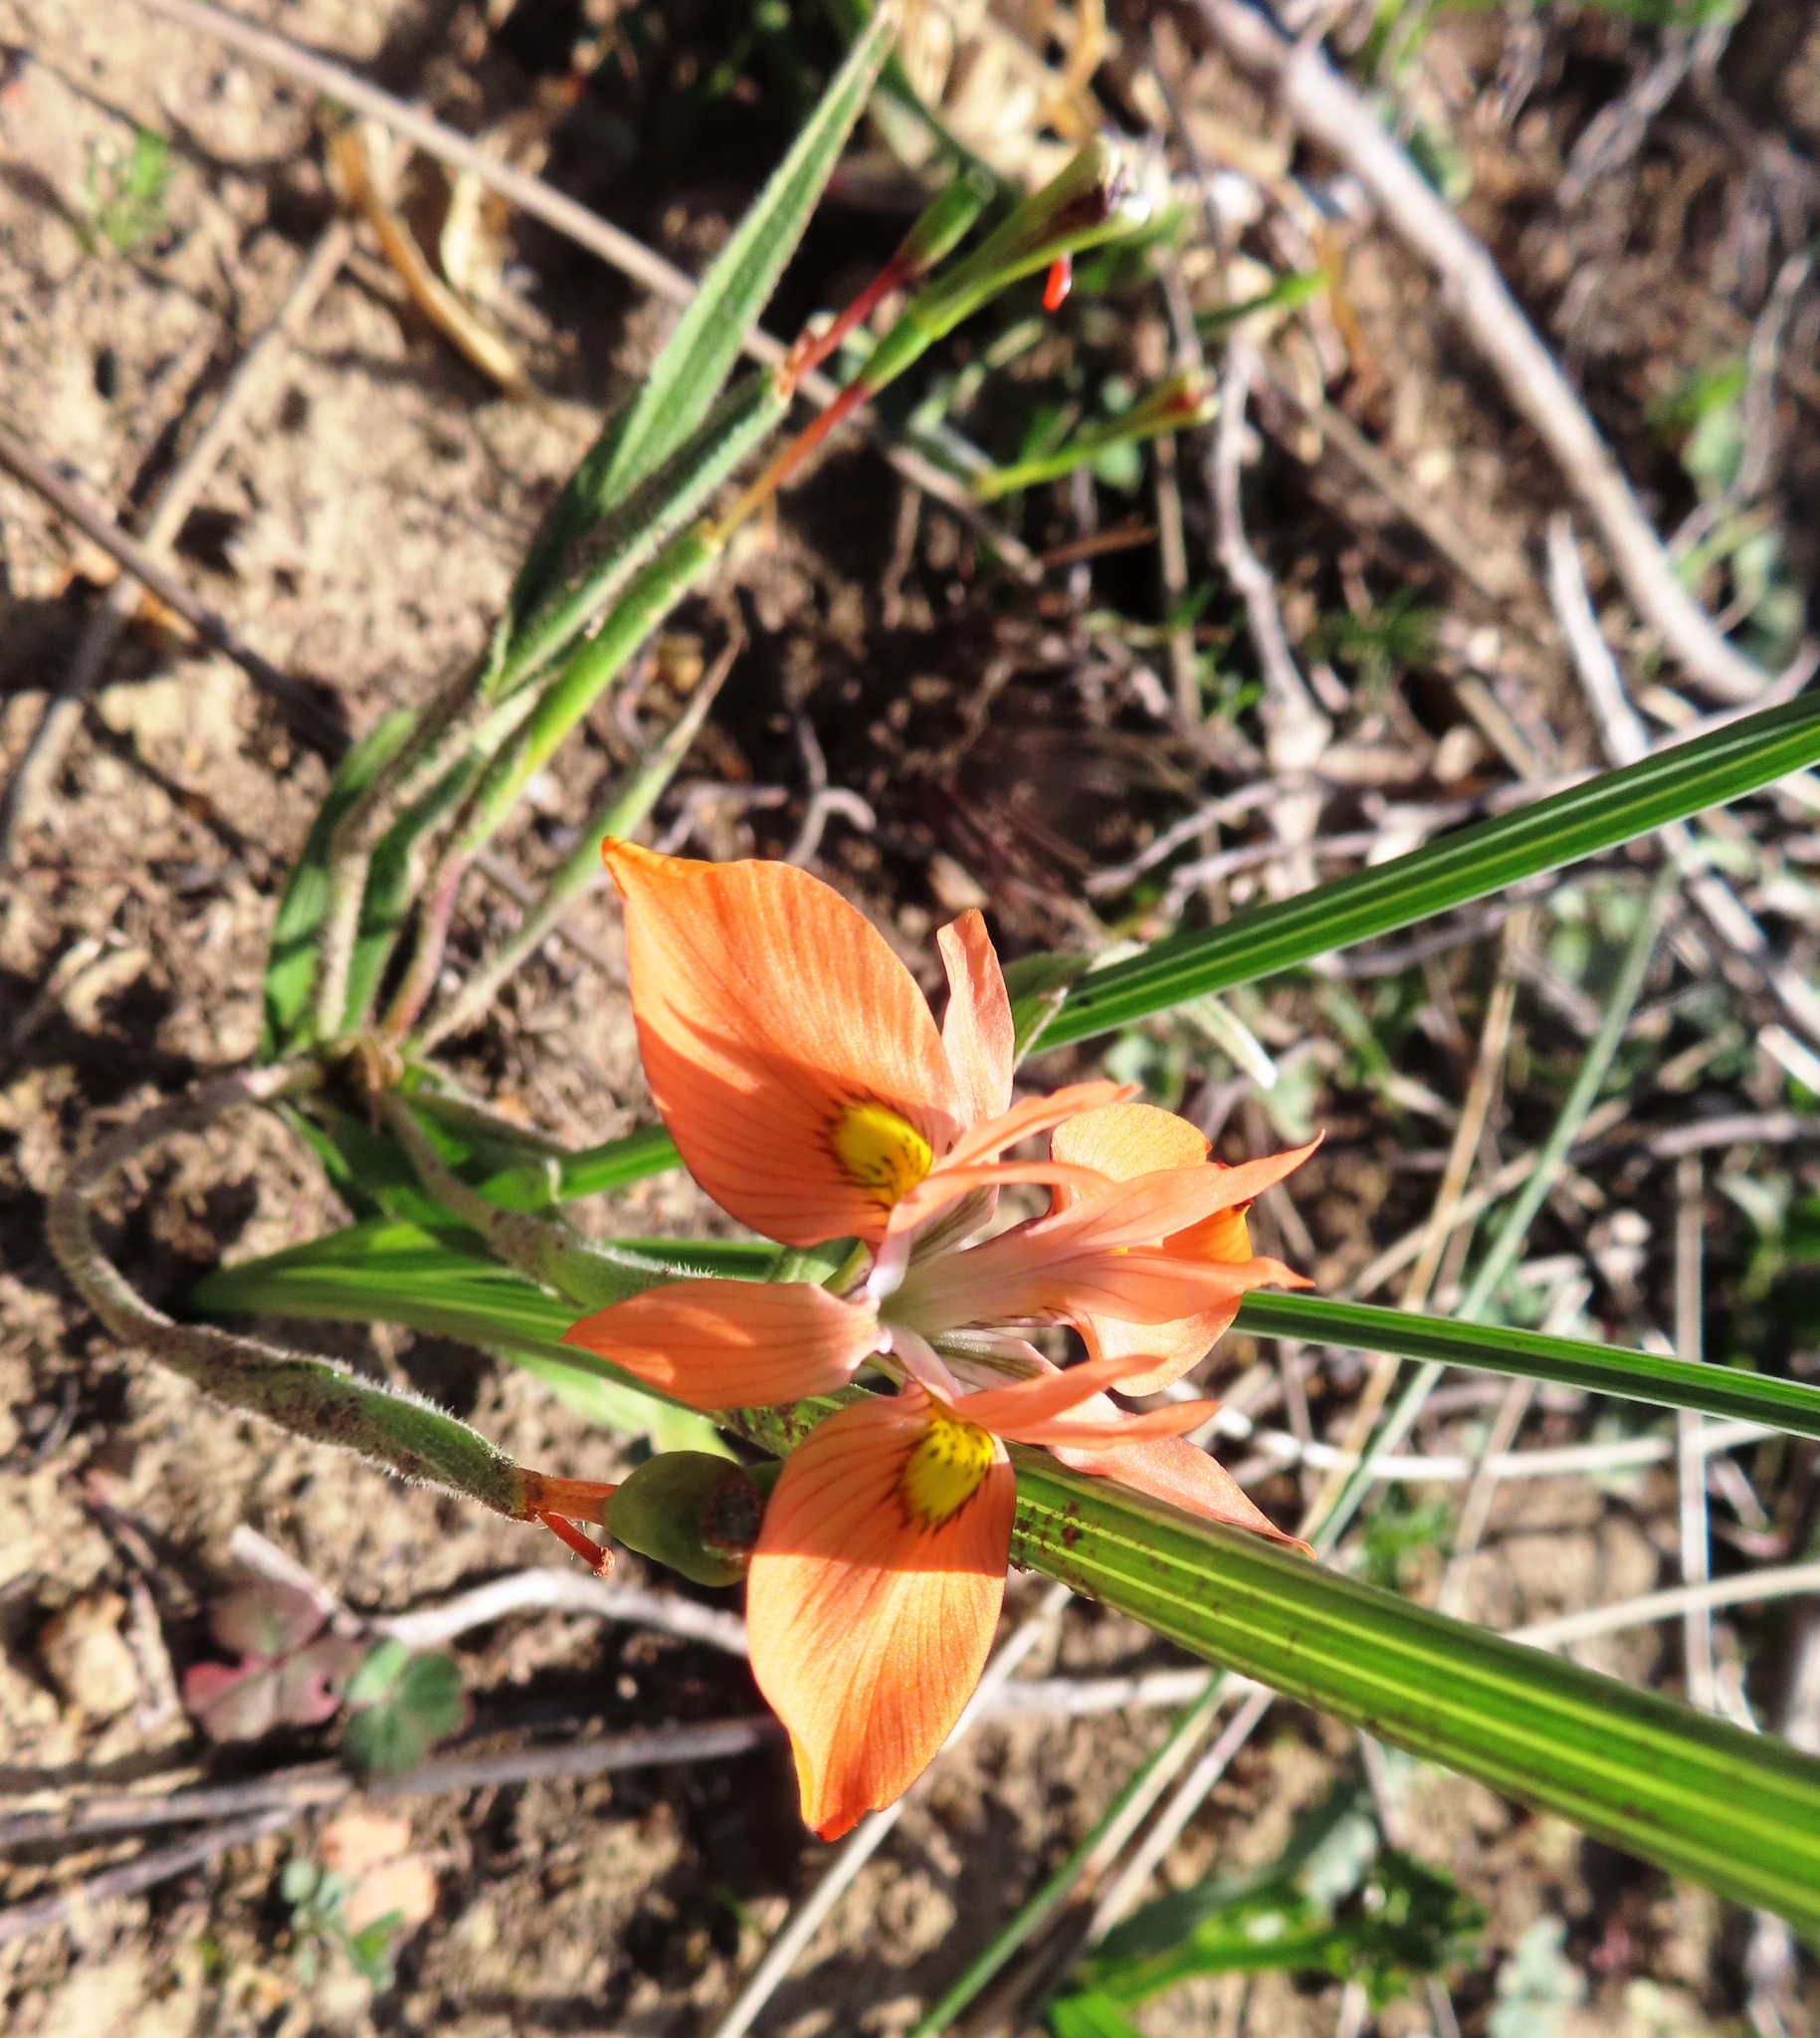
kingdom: Plantae
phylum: Tracheophyta
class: Liliopsida
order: Asparagales
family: Iridaceae
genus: Moraea
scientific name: Moraea papilionacea
